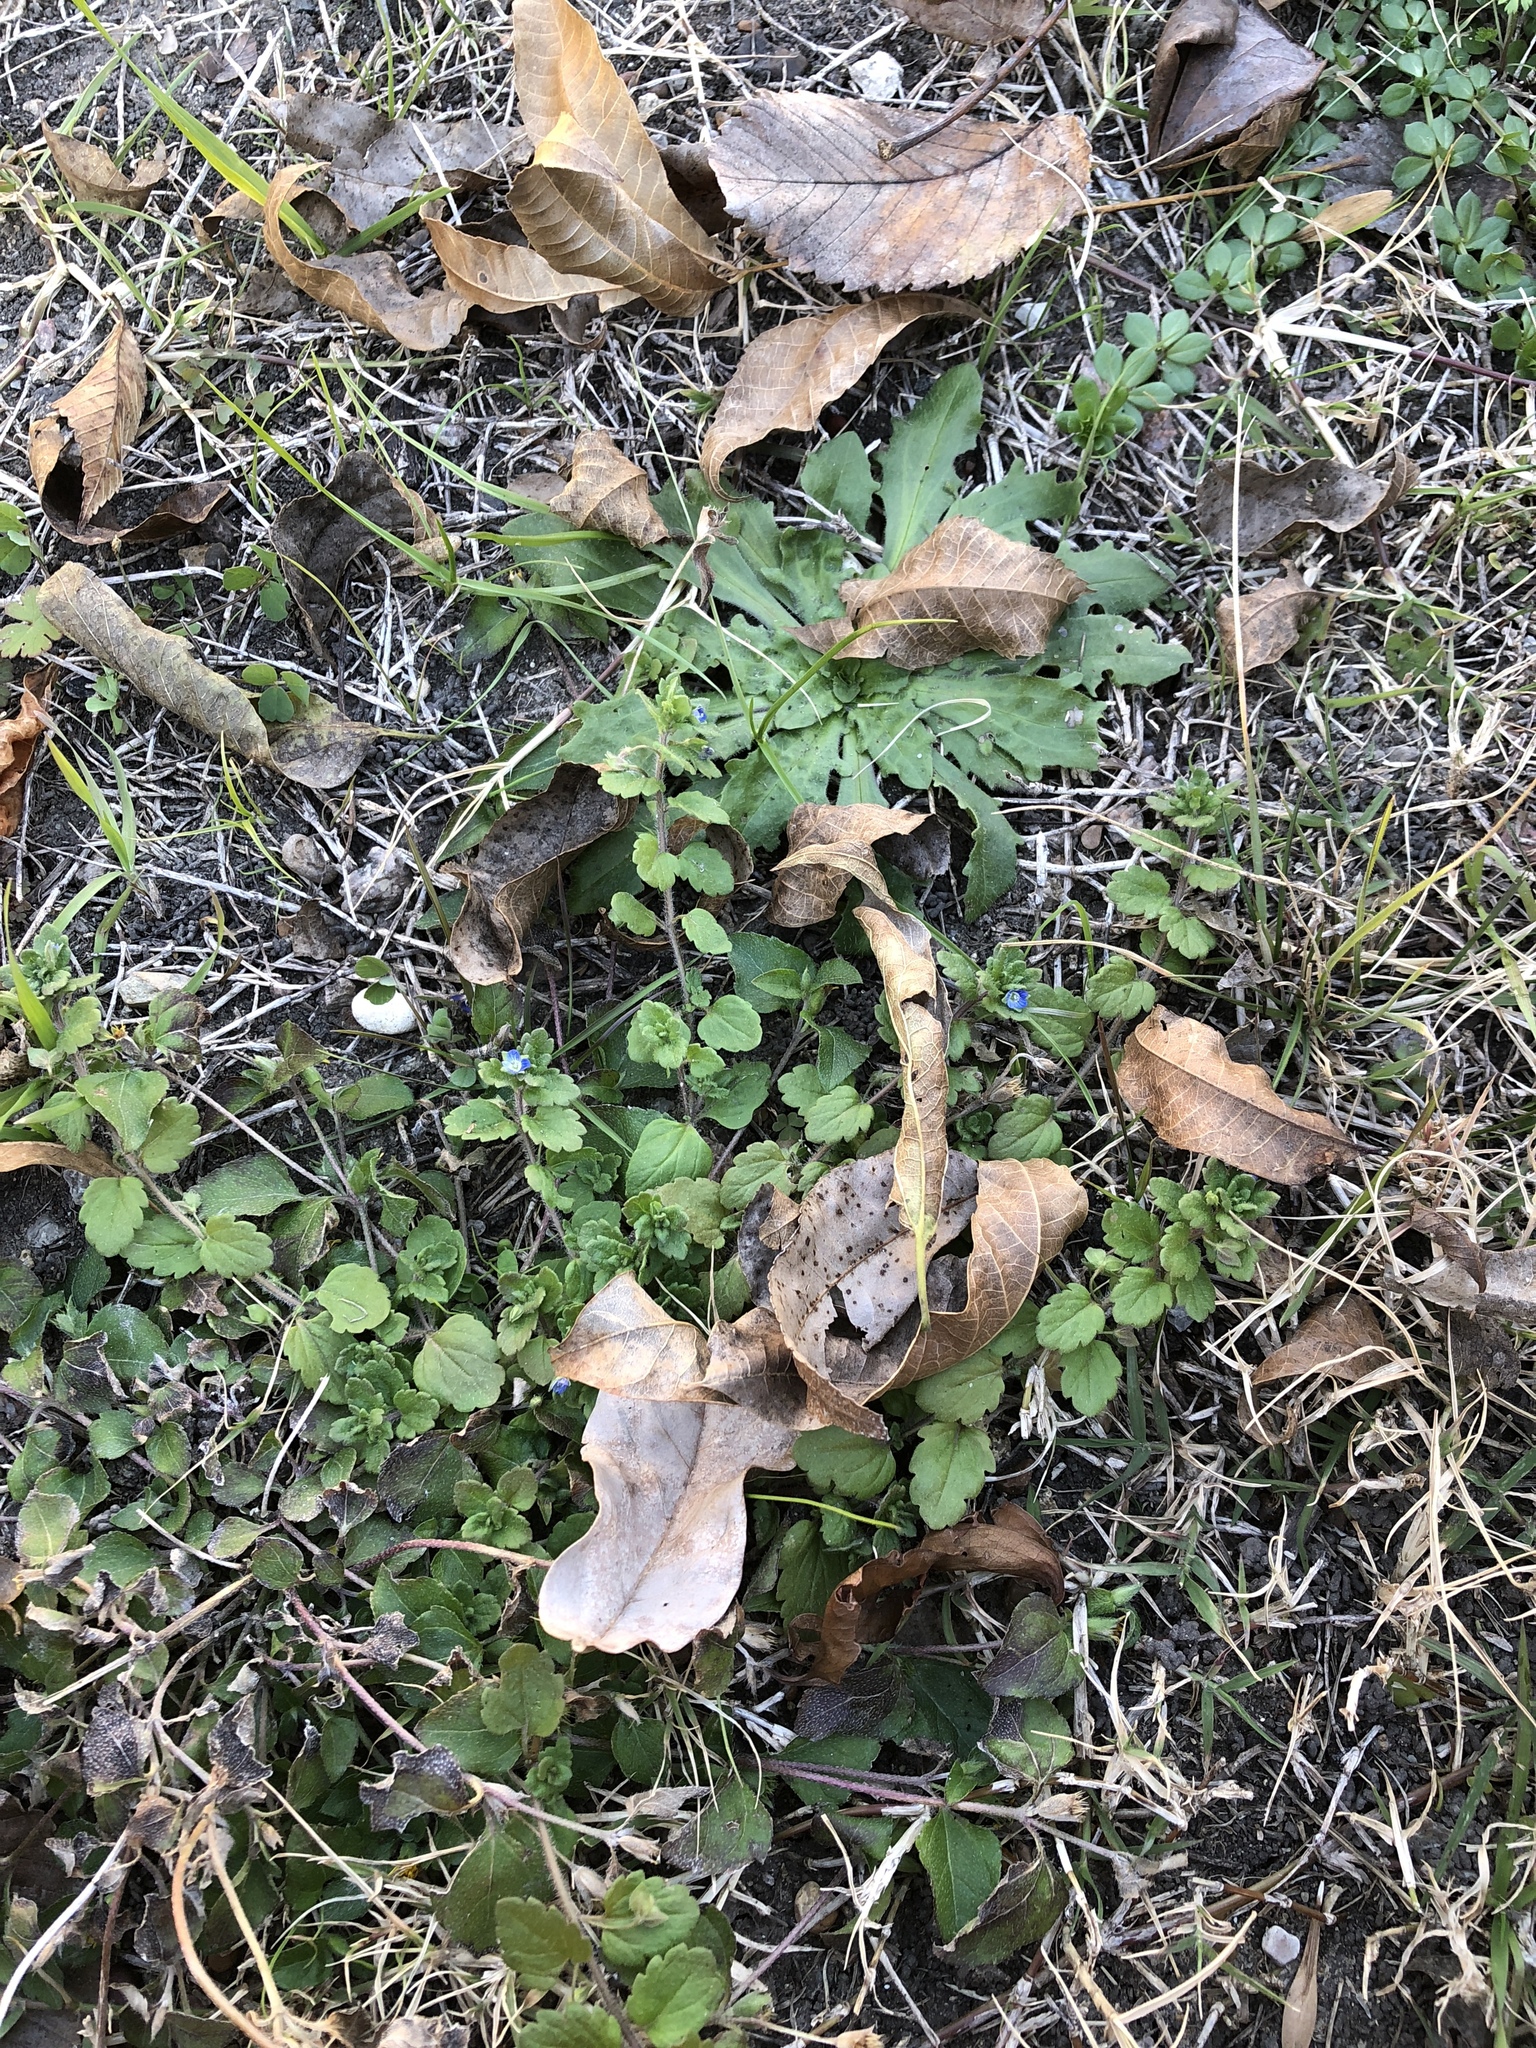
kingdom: Plantae
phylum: Tracheophyta
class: Magnoliopsida
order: Lamiales
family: Plantaginaceae
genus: Veronica
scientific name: Veronica polita
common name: Grey field-speedwell
